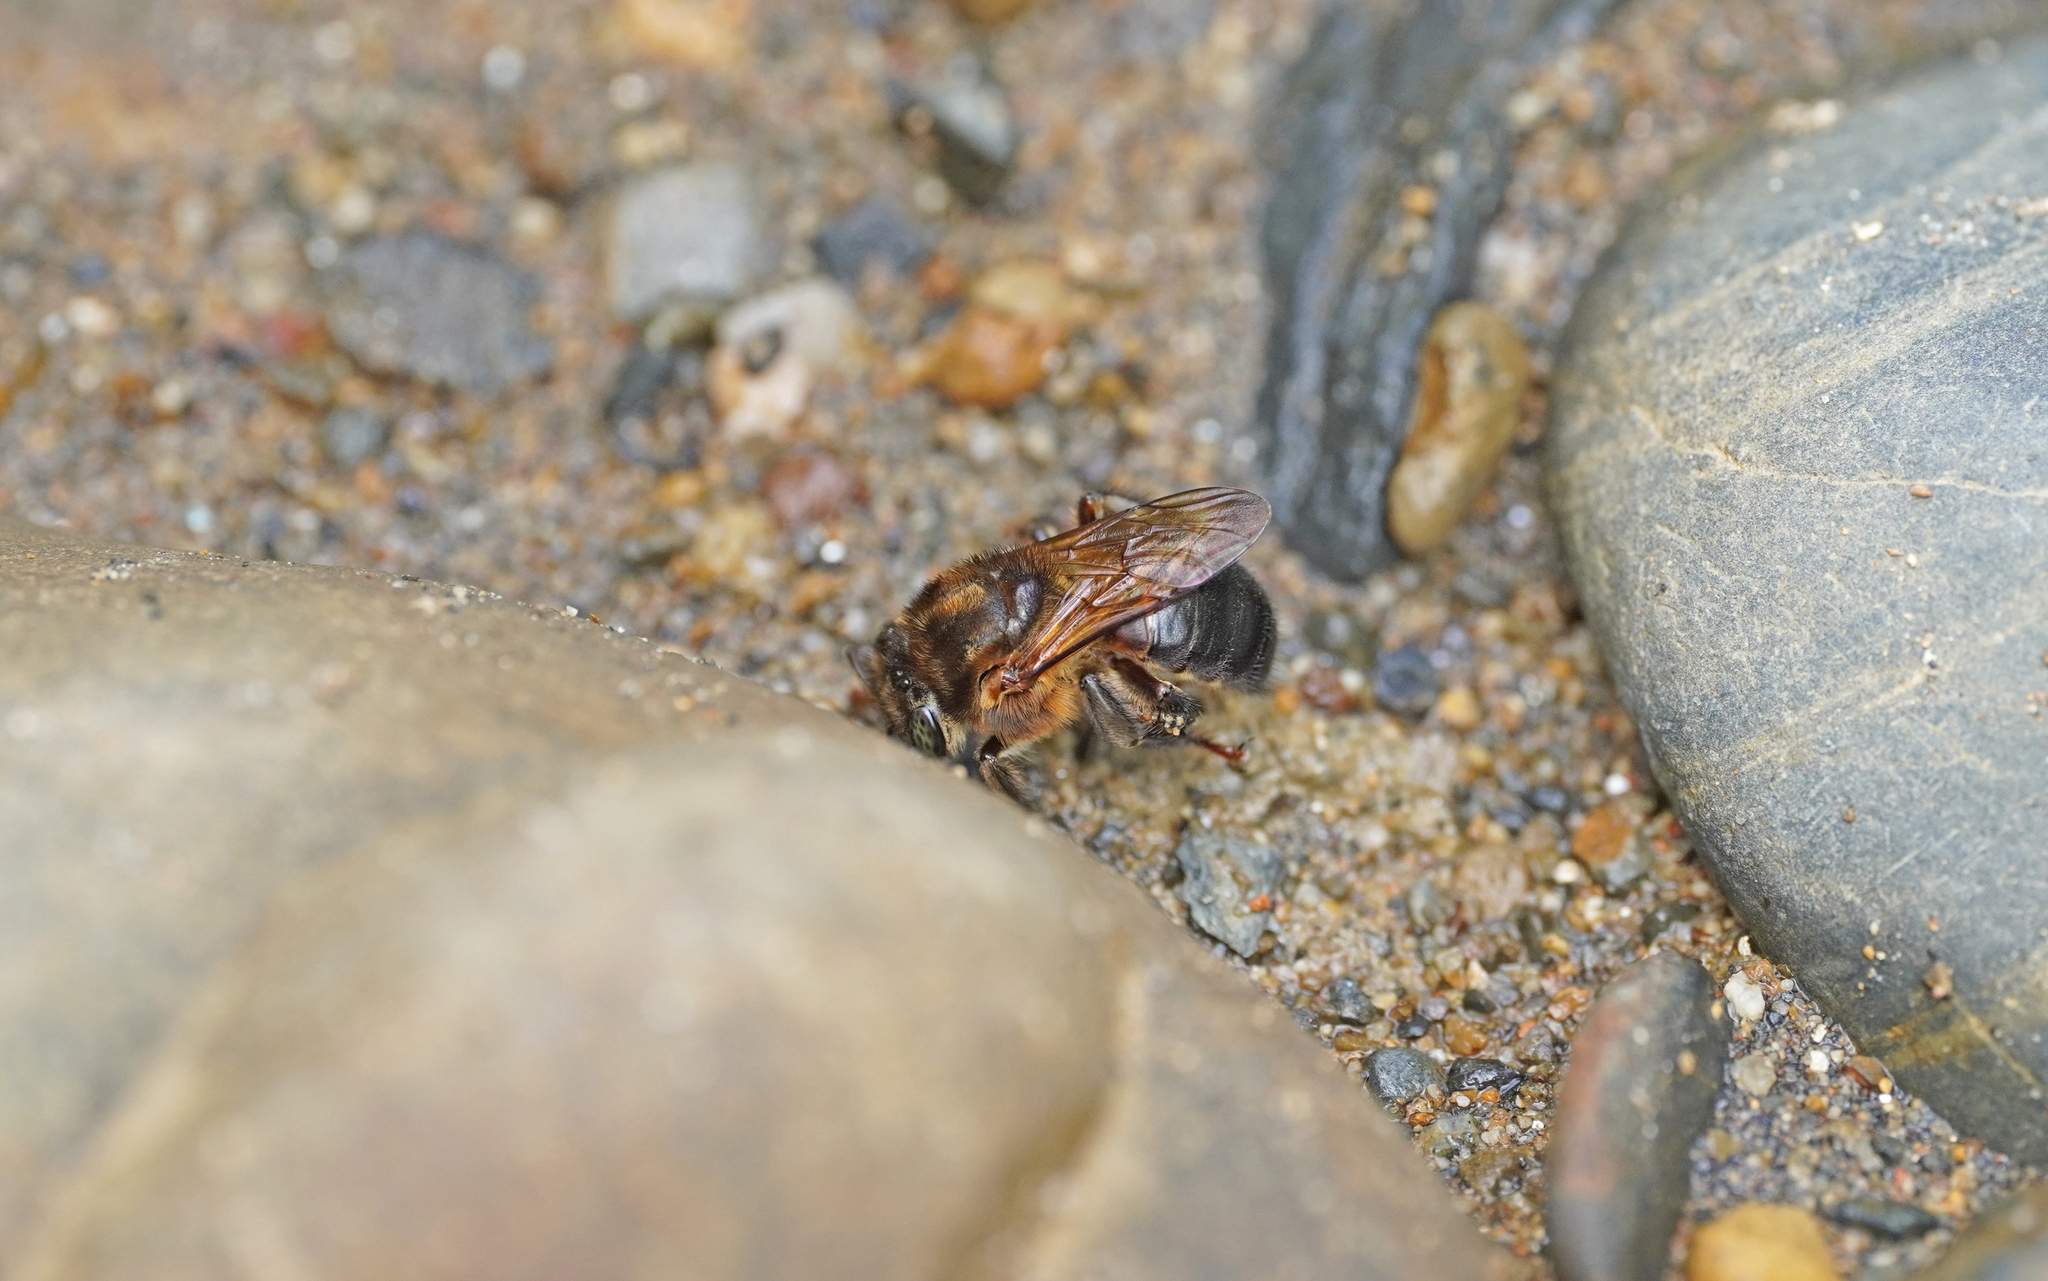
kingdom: Animalia
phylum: Arthropoda
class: Insecta
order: Hymenoptera
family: Apidae
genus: Melipona
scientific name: Melipona illota
